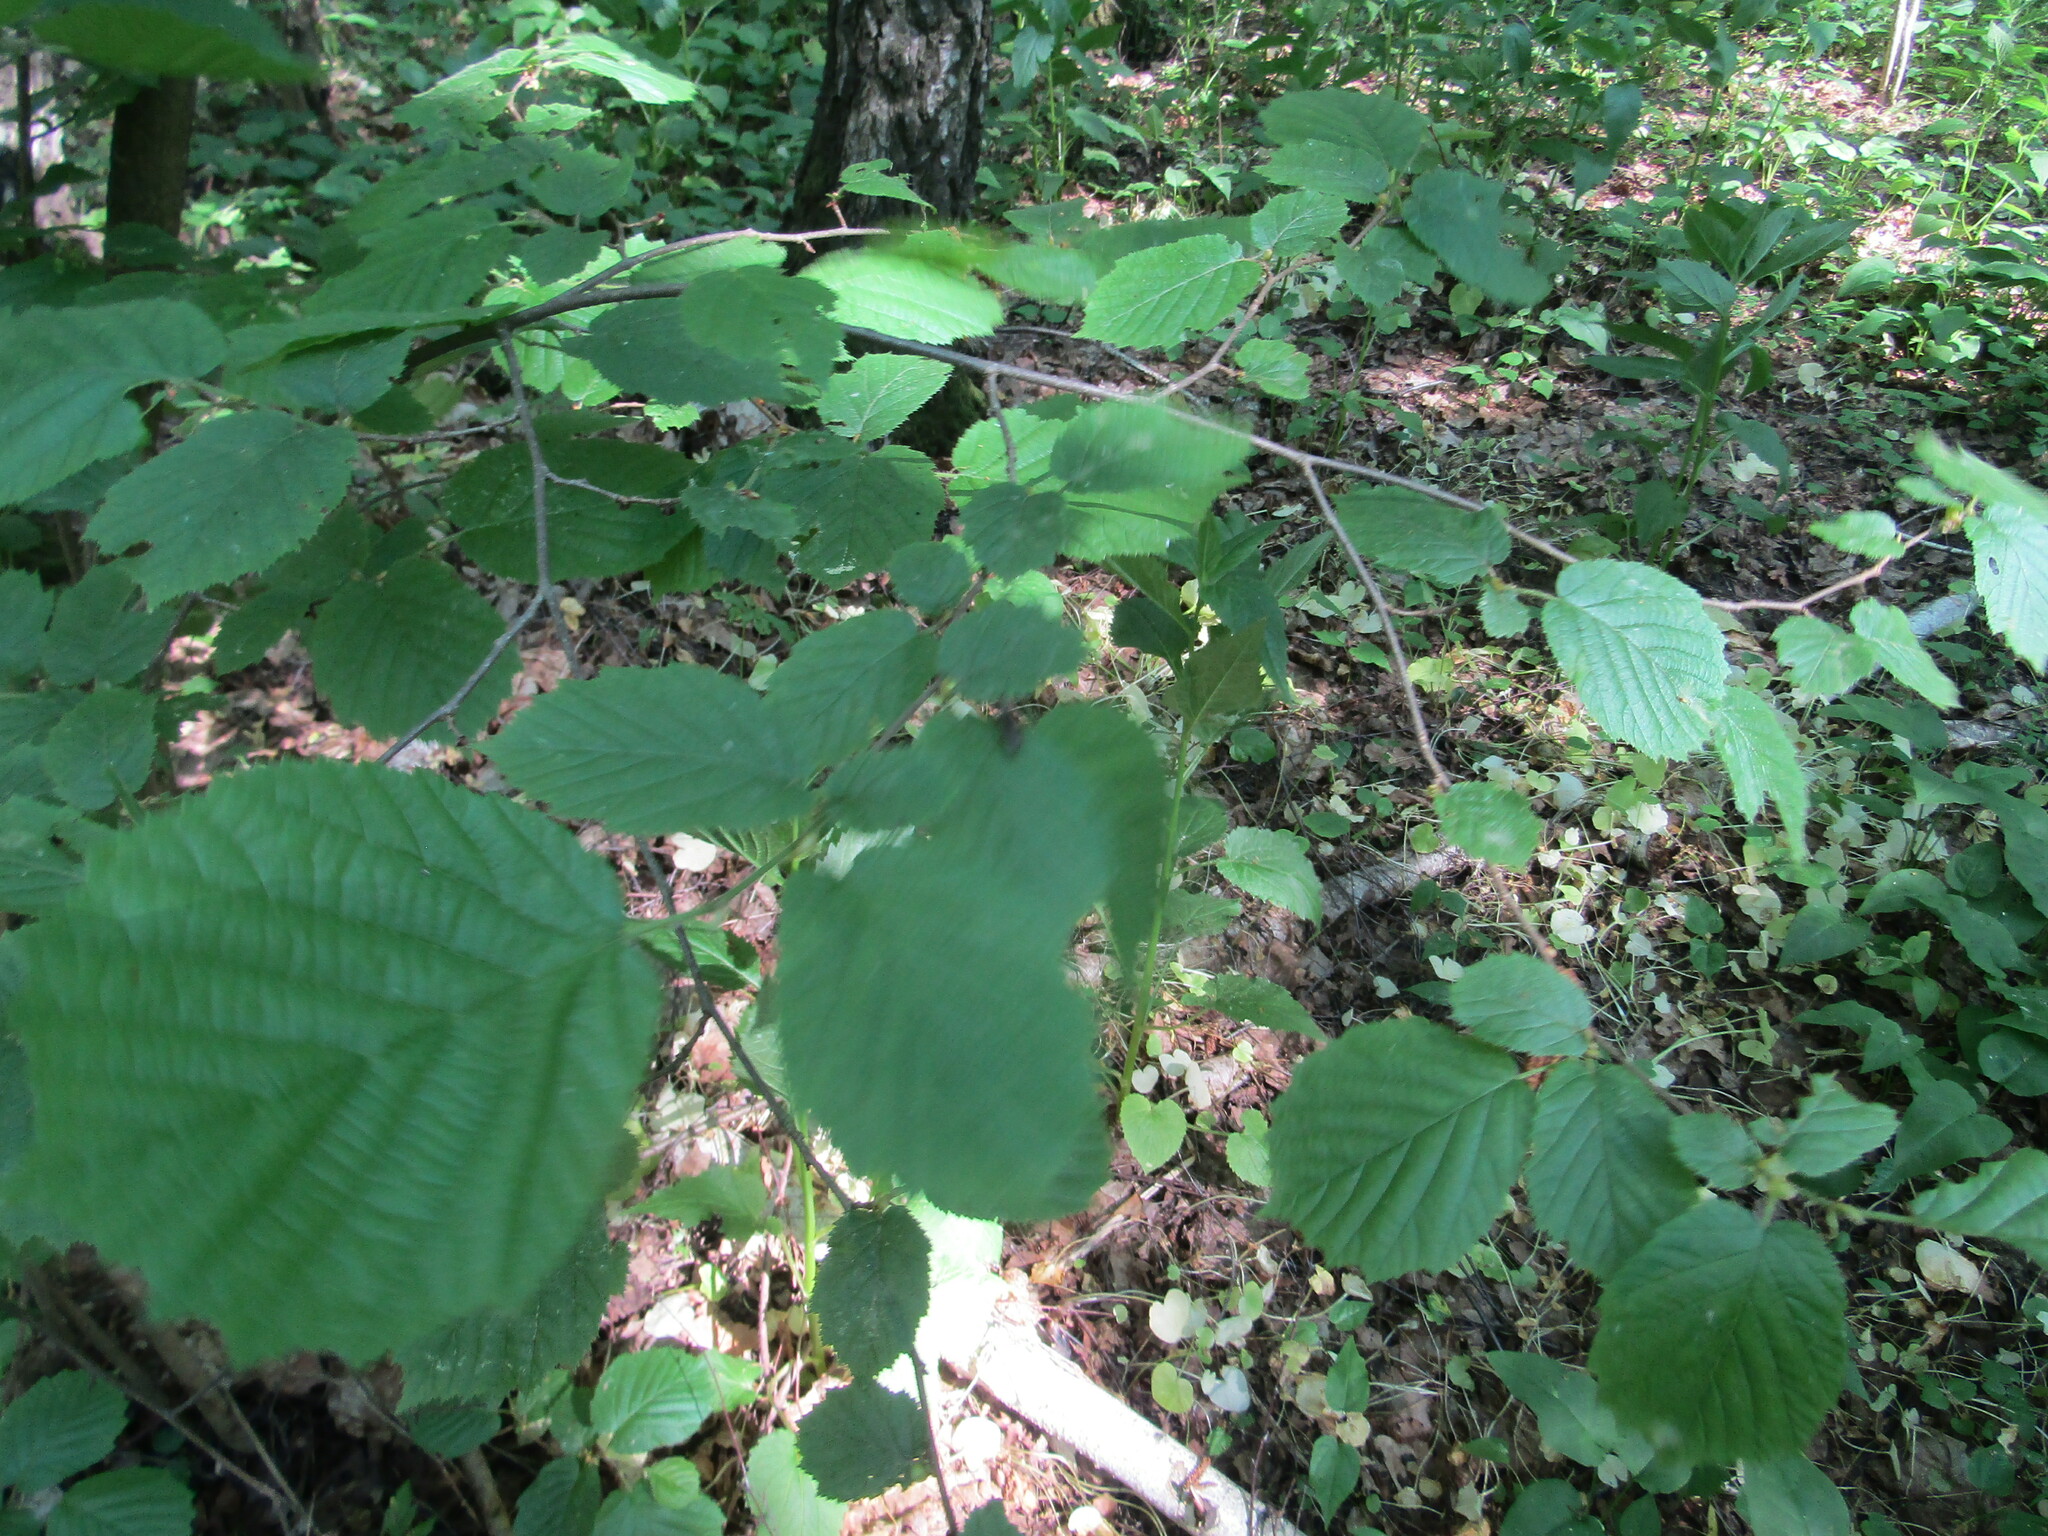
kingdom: Plantae
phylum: Tracheophyta
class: Magnoliopsida
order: Fagales
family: Betulaceae
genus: Corylus
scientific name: Corylus avellana
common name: European hazel
